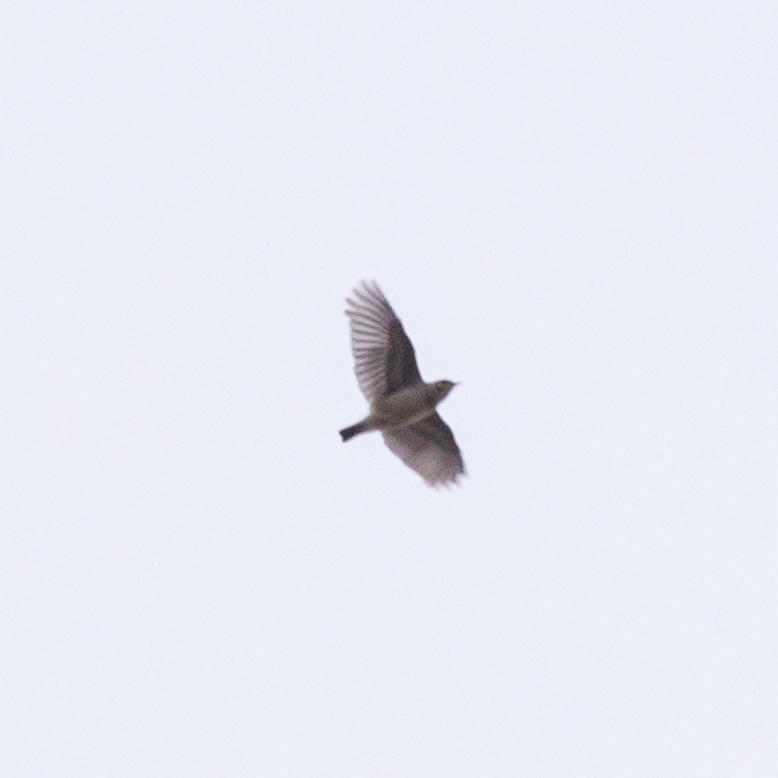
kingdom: Animalia
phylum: Chordata
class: Aves
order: Passeriformes
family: Alaudidae
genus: Lullula
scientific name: Lullula arborea
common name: Woodlark
